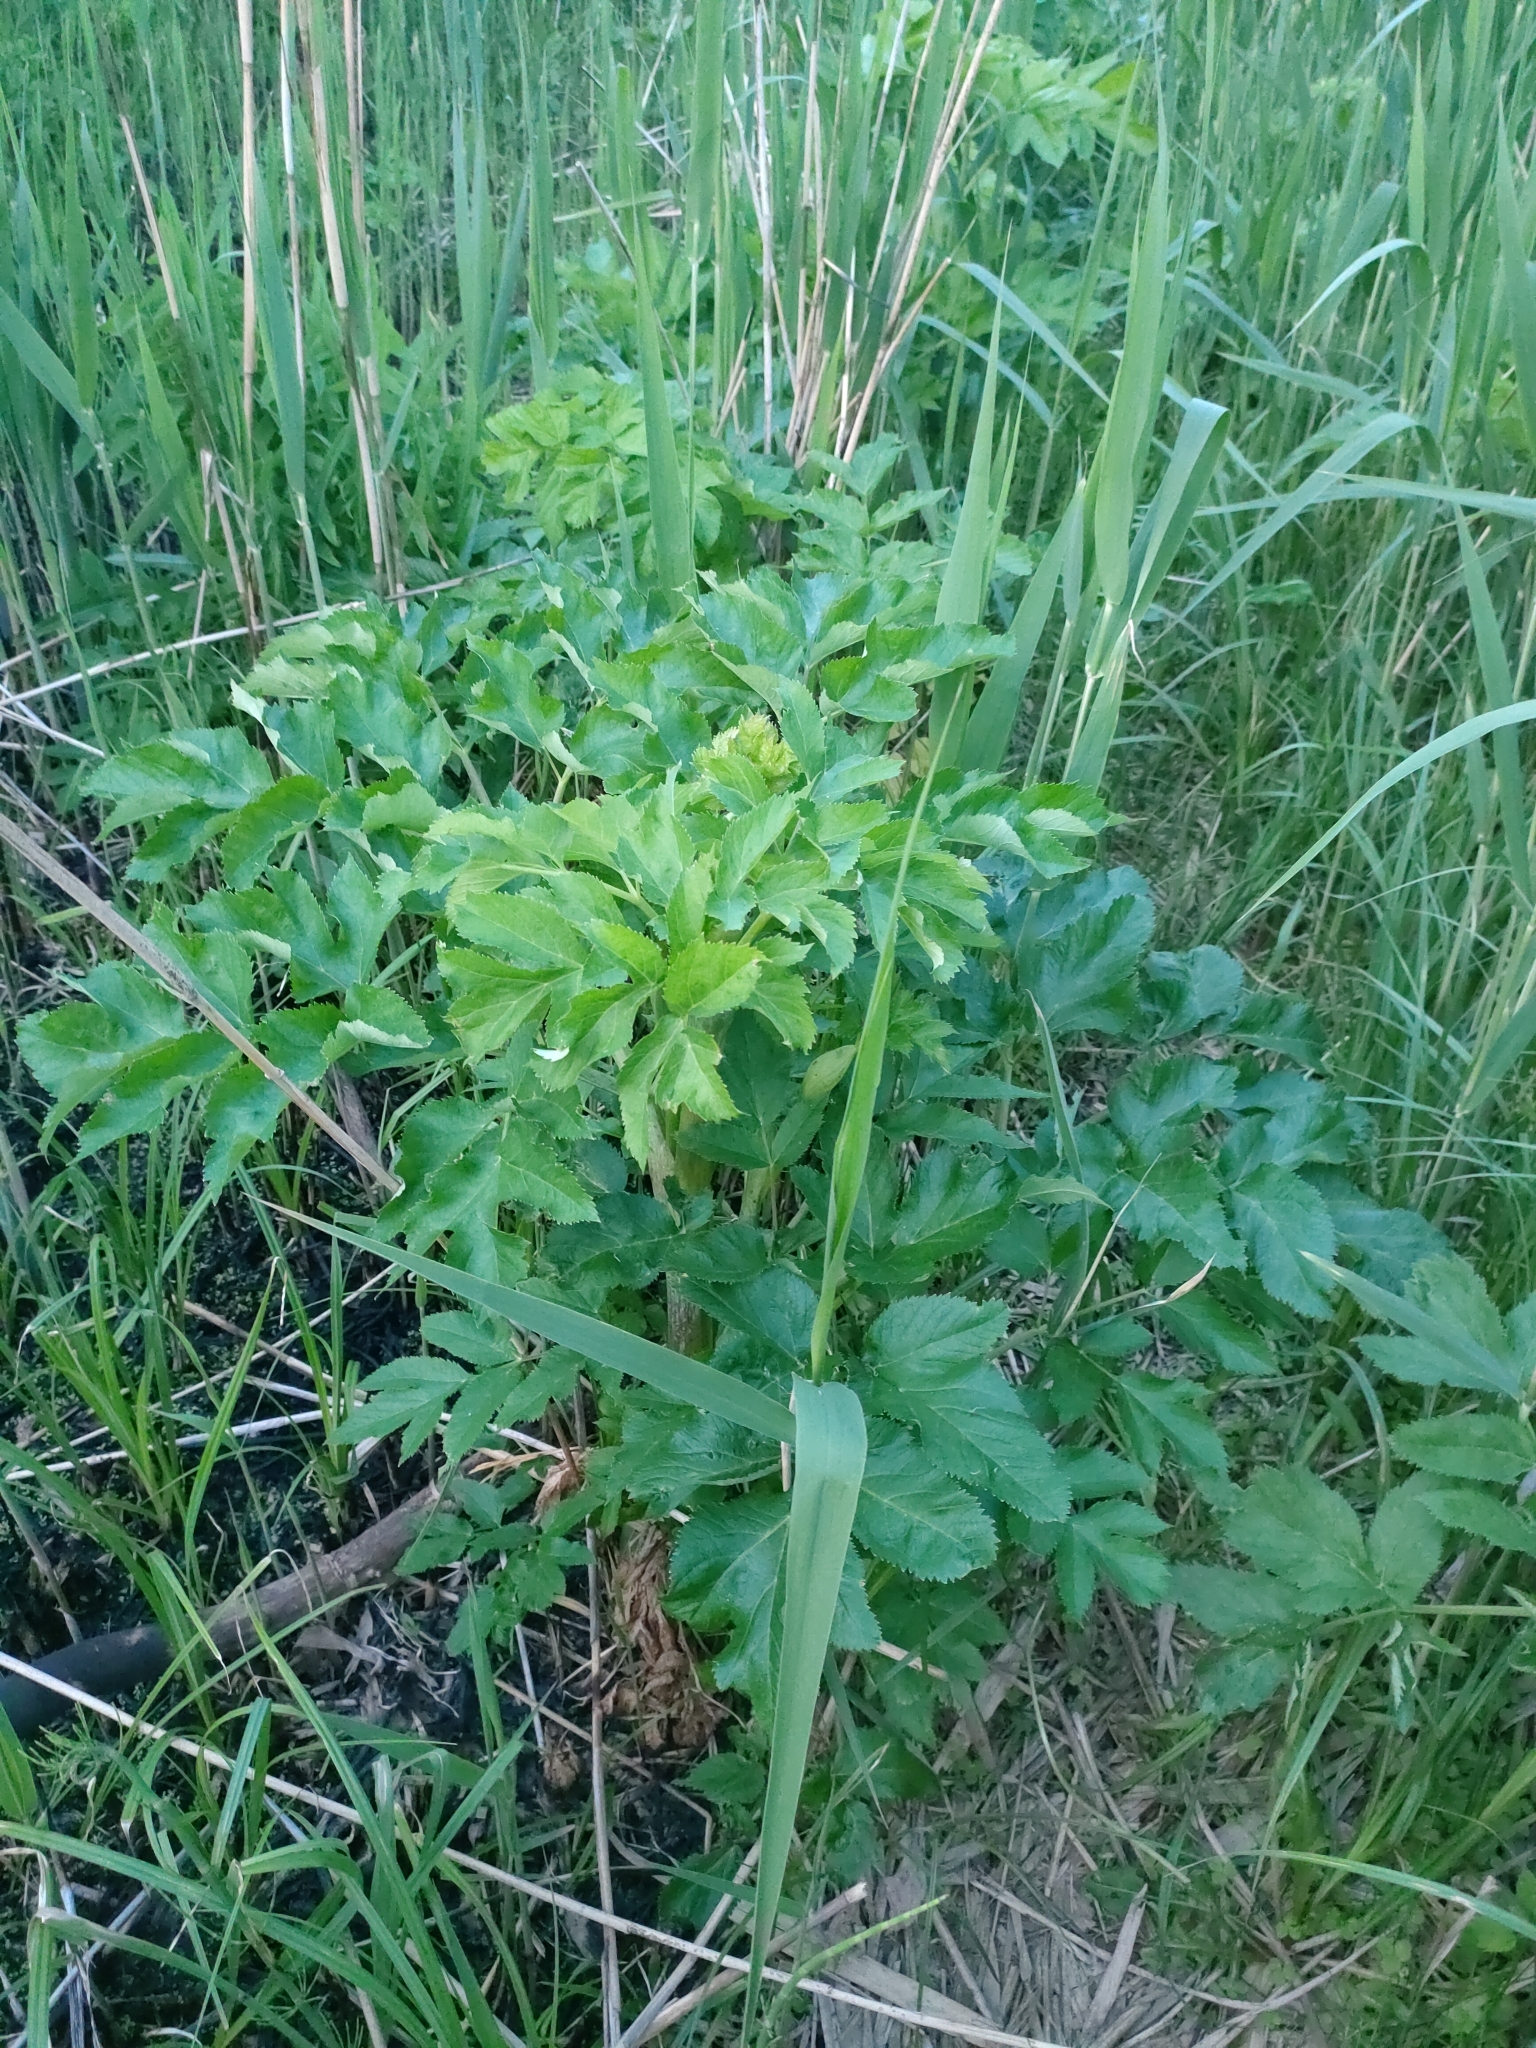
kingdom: Plantae
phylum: Tracheophyta
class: Magnoliopsida
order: Apiales
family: Apiaceae
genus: Angelica
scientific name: Angelica archangelica
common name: Garden angelica
